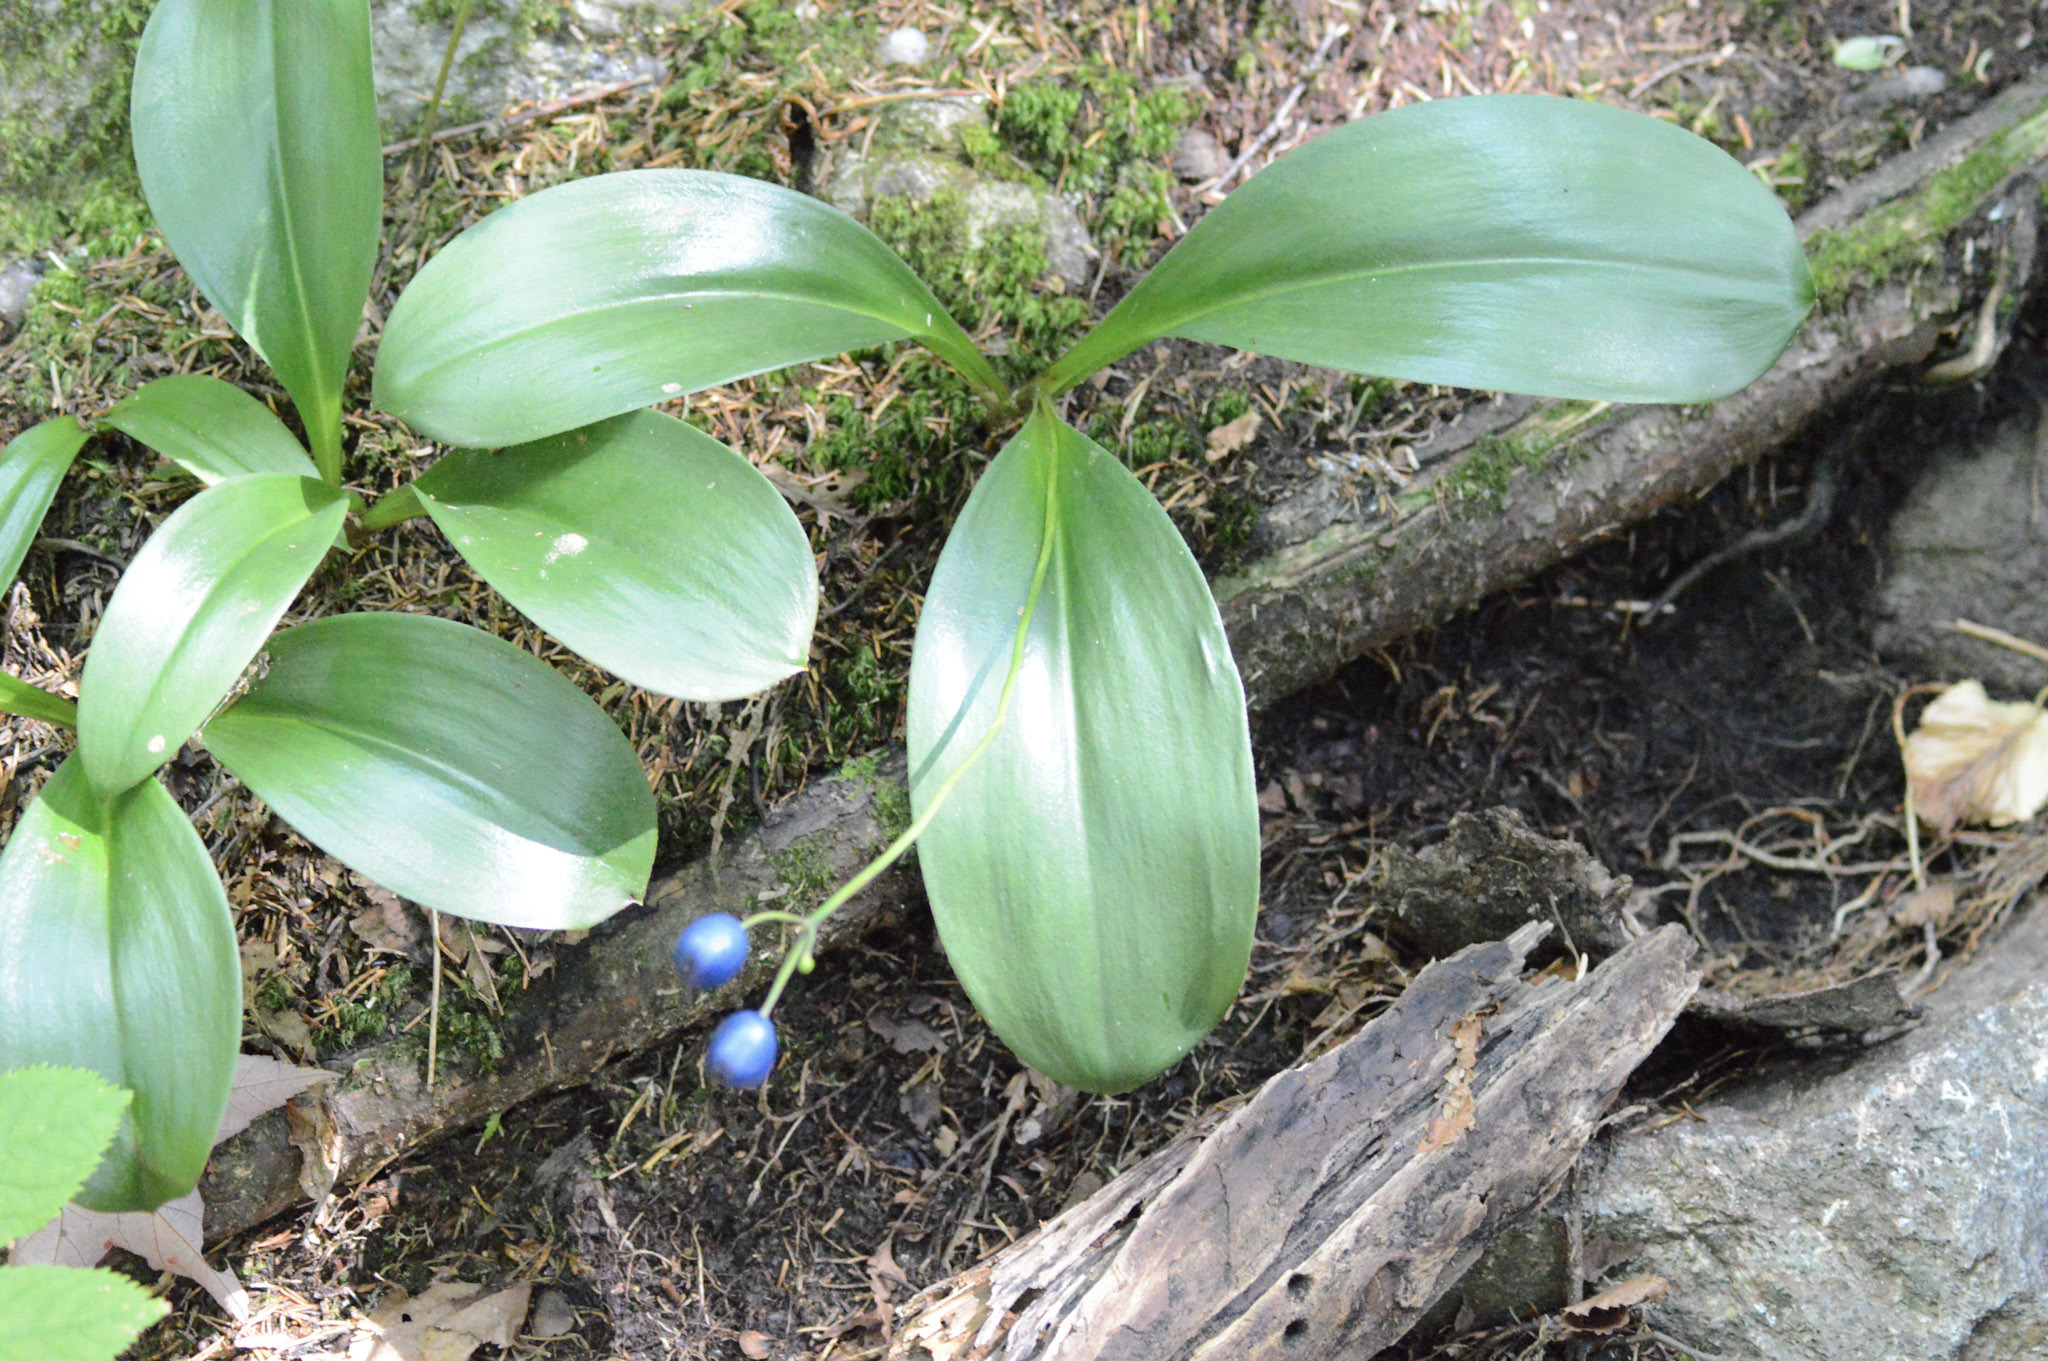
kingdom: Plantae
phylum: Tracheophyta
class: Liliopsida
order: Liliales
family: Liliaceae
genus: Clintonia
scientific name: Clintonia borealis
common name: Yellow clintonia
